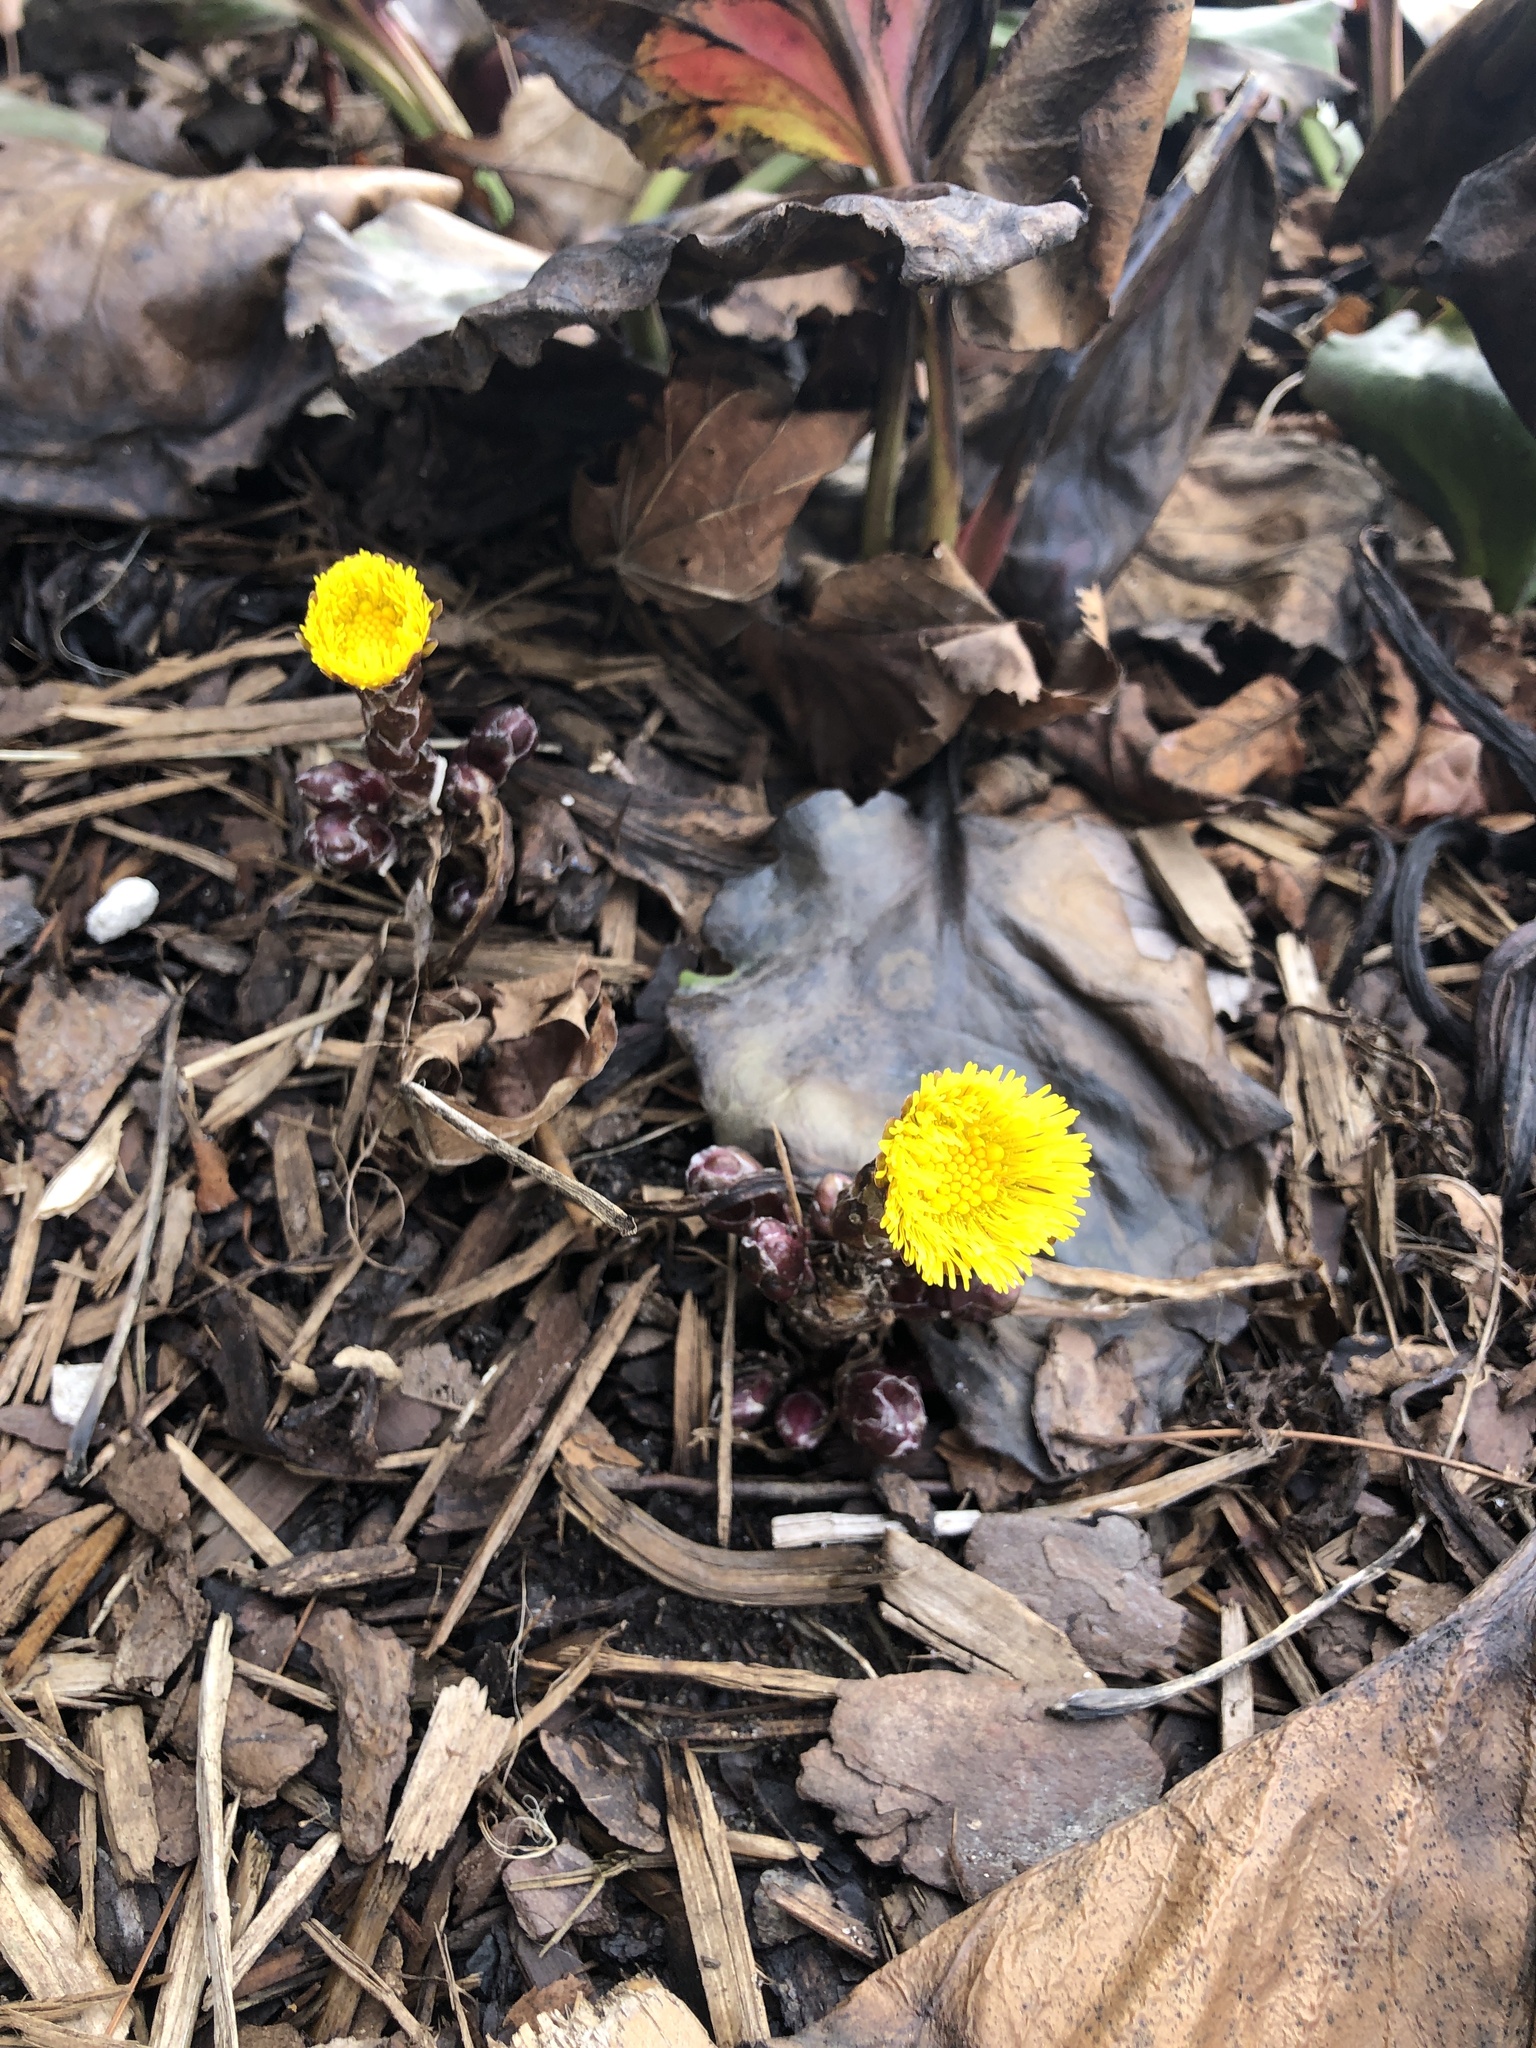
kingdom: Plantae
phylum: Tracheophyta
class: Magnoliopsida
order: Asterales
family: Asteraceae
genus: Tussilago
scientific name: Tussilago farfara
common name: Coltsfoot
